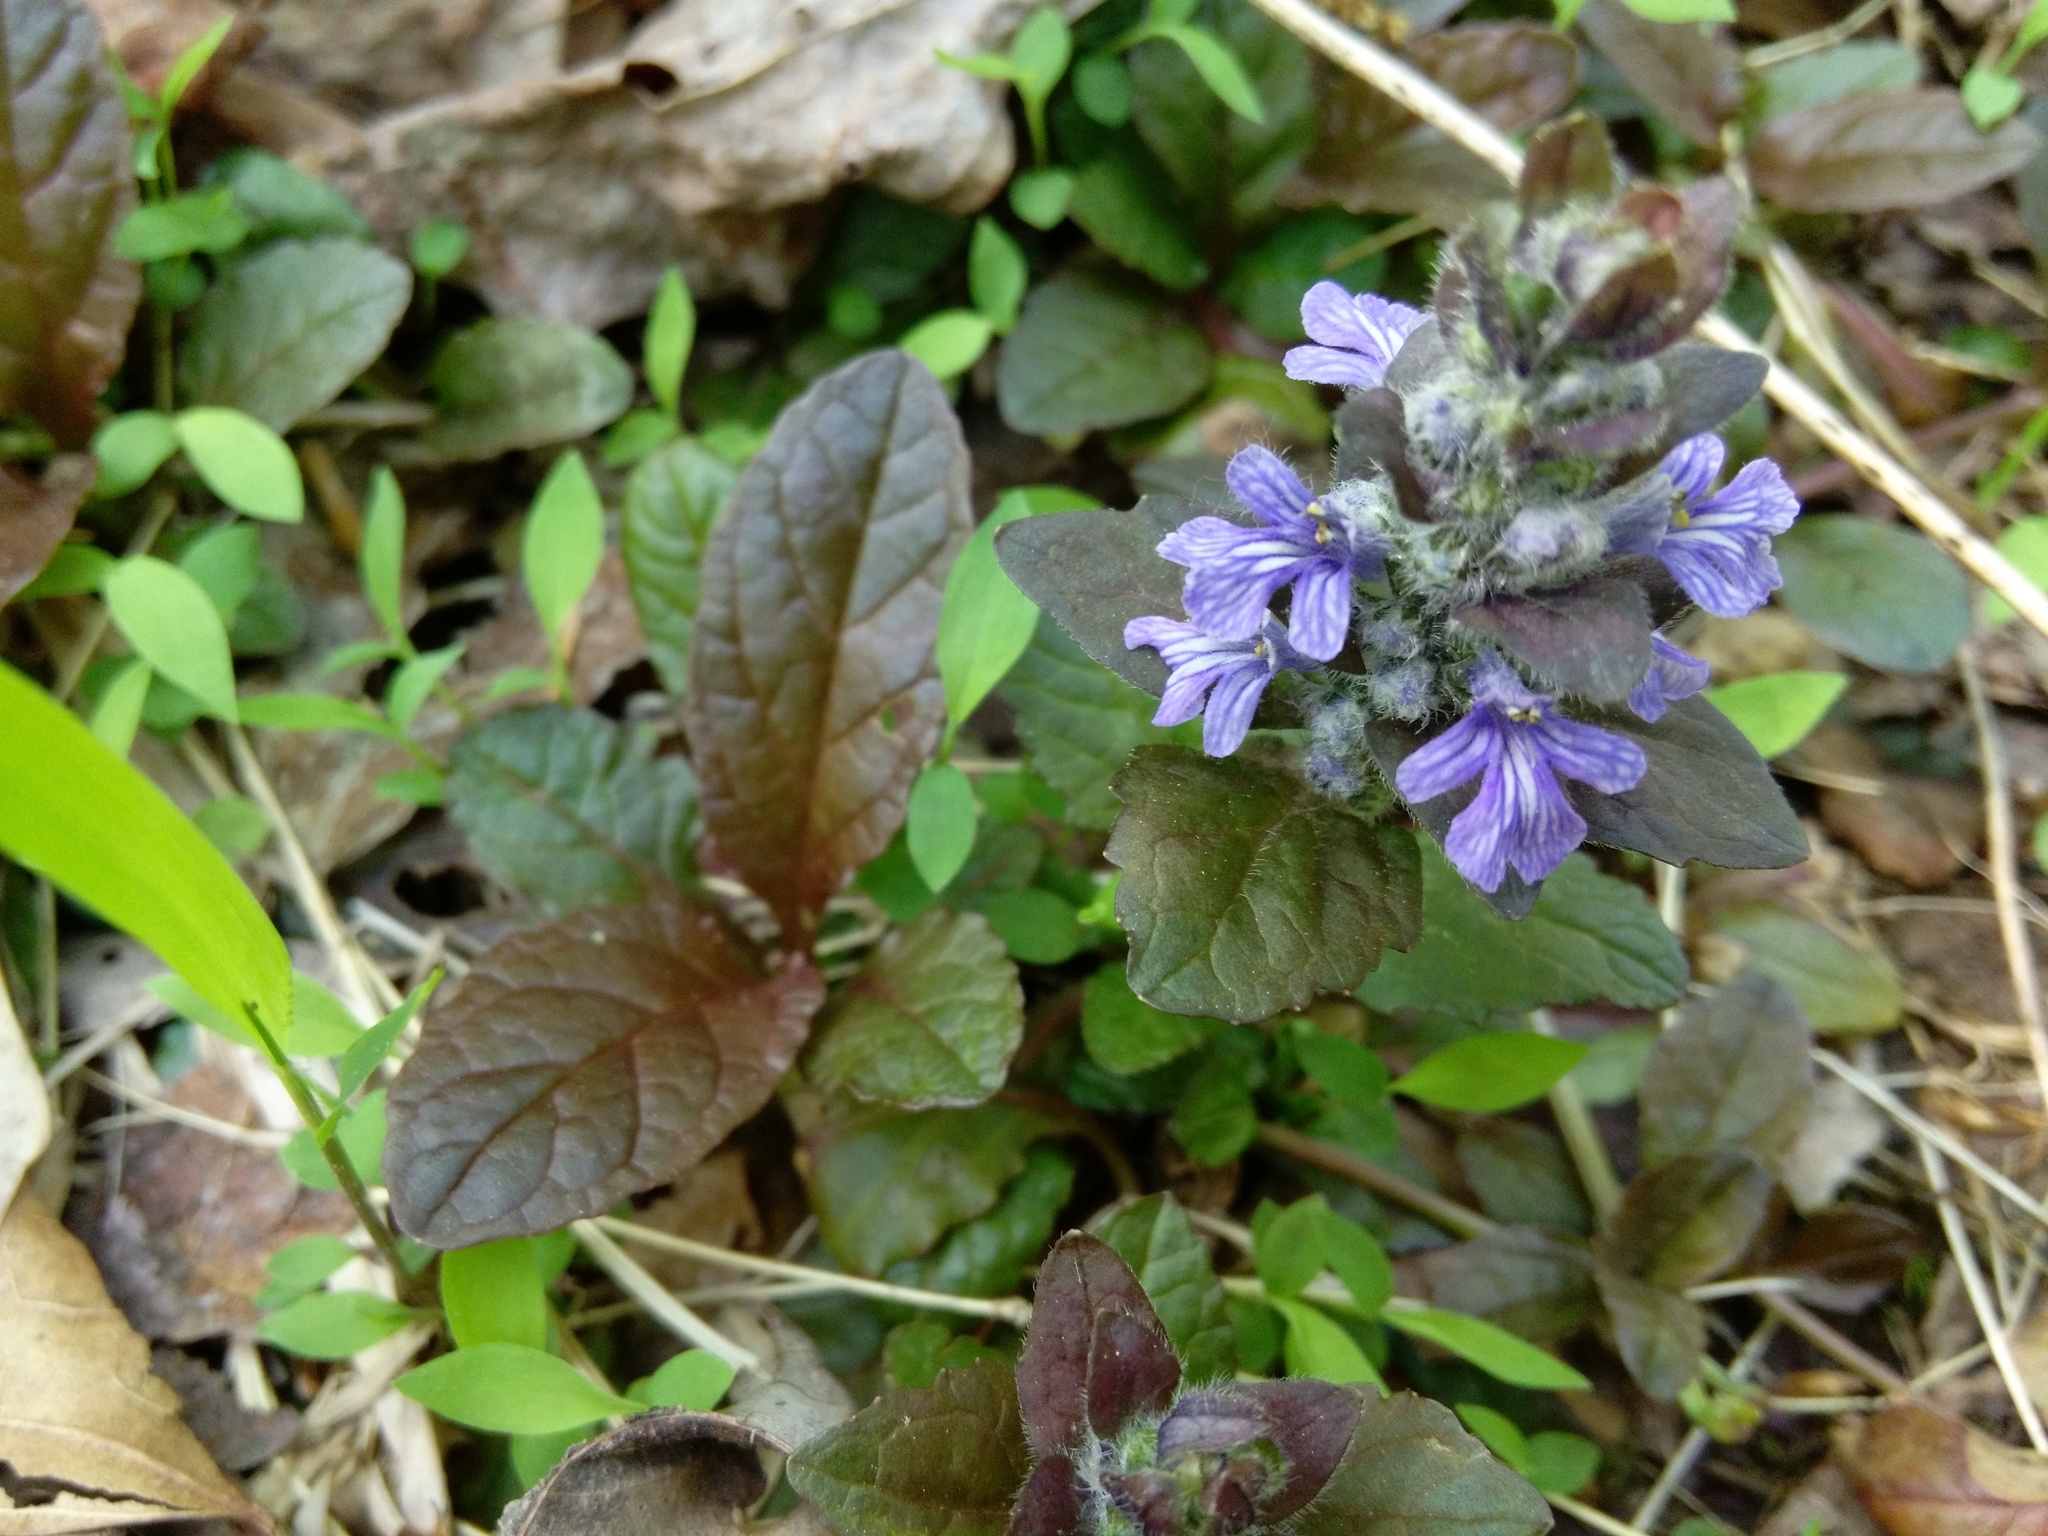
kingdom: Plantae
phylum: Tracheophyta
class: Magnoliopsida
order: Lamiales
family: Lamiaceae
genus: Ajuga
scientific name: Ajuga reptans
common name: Bugle
